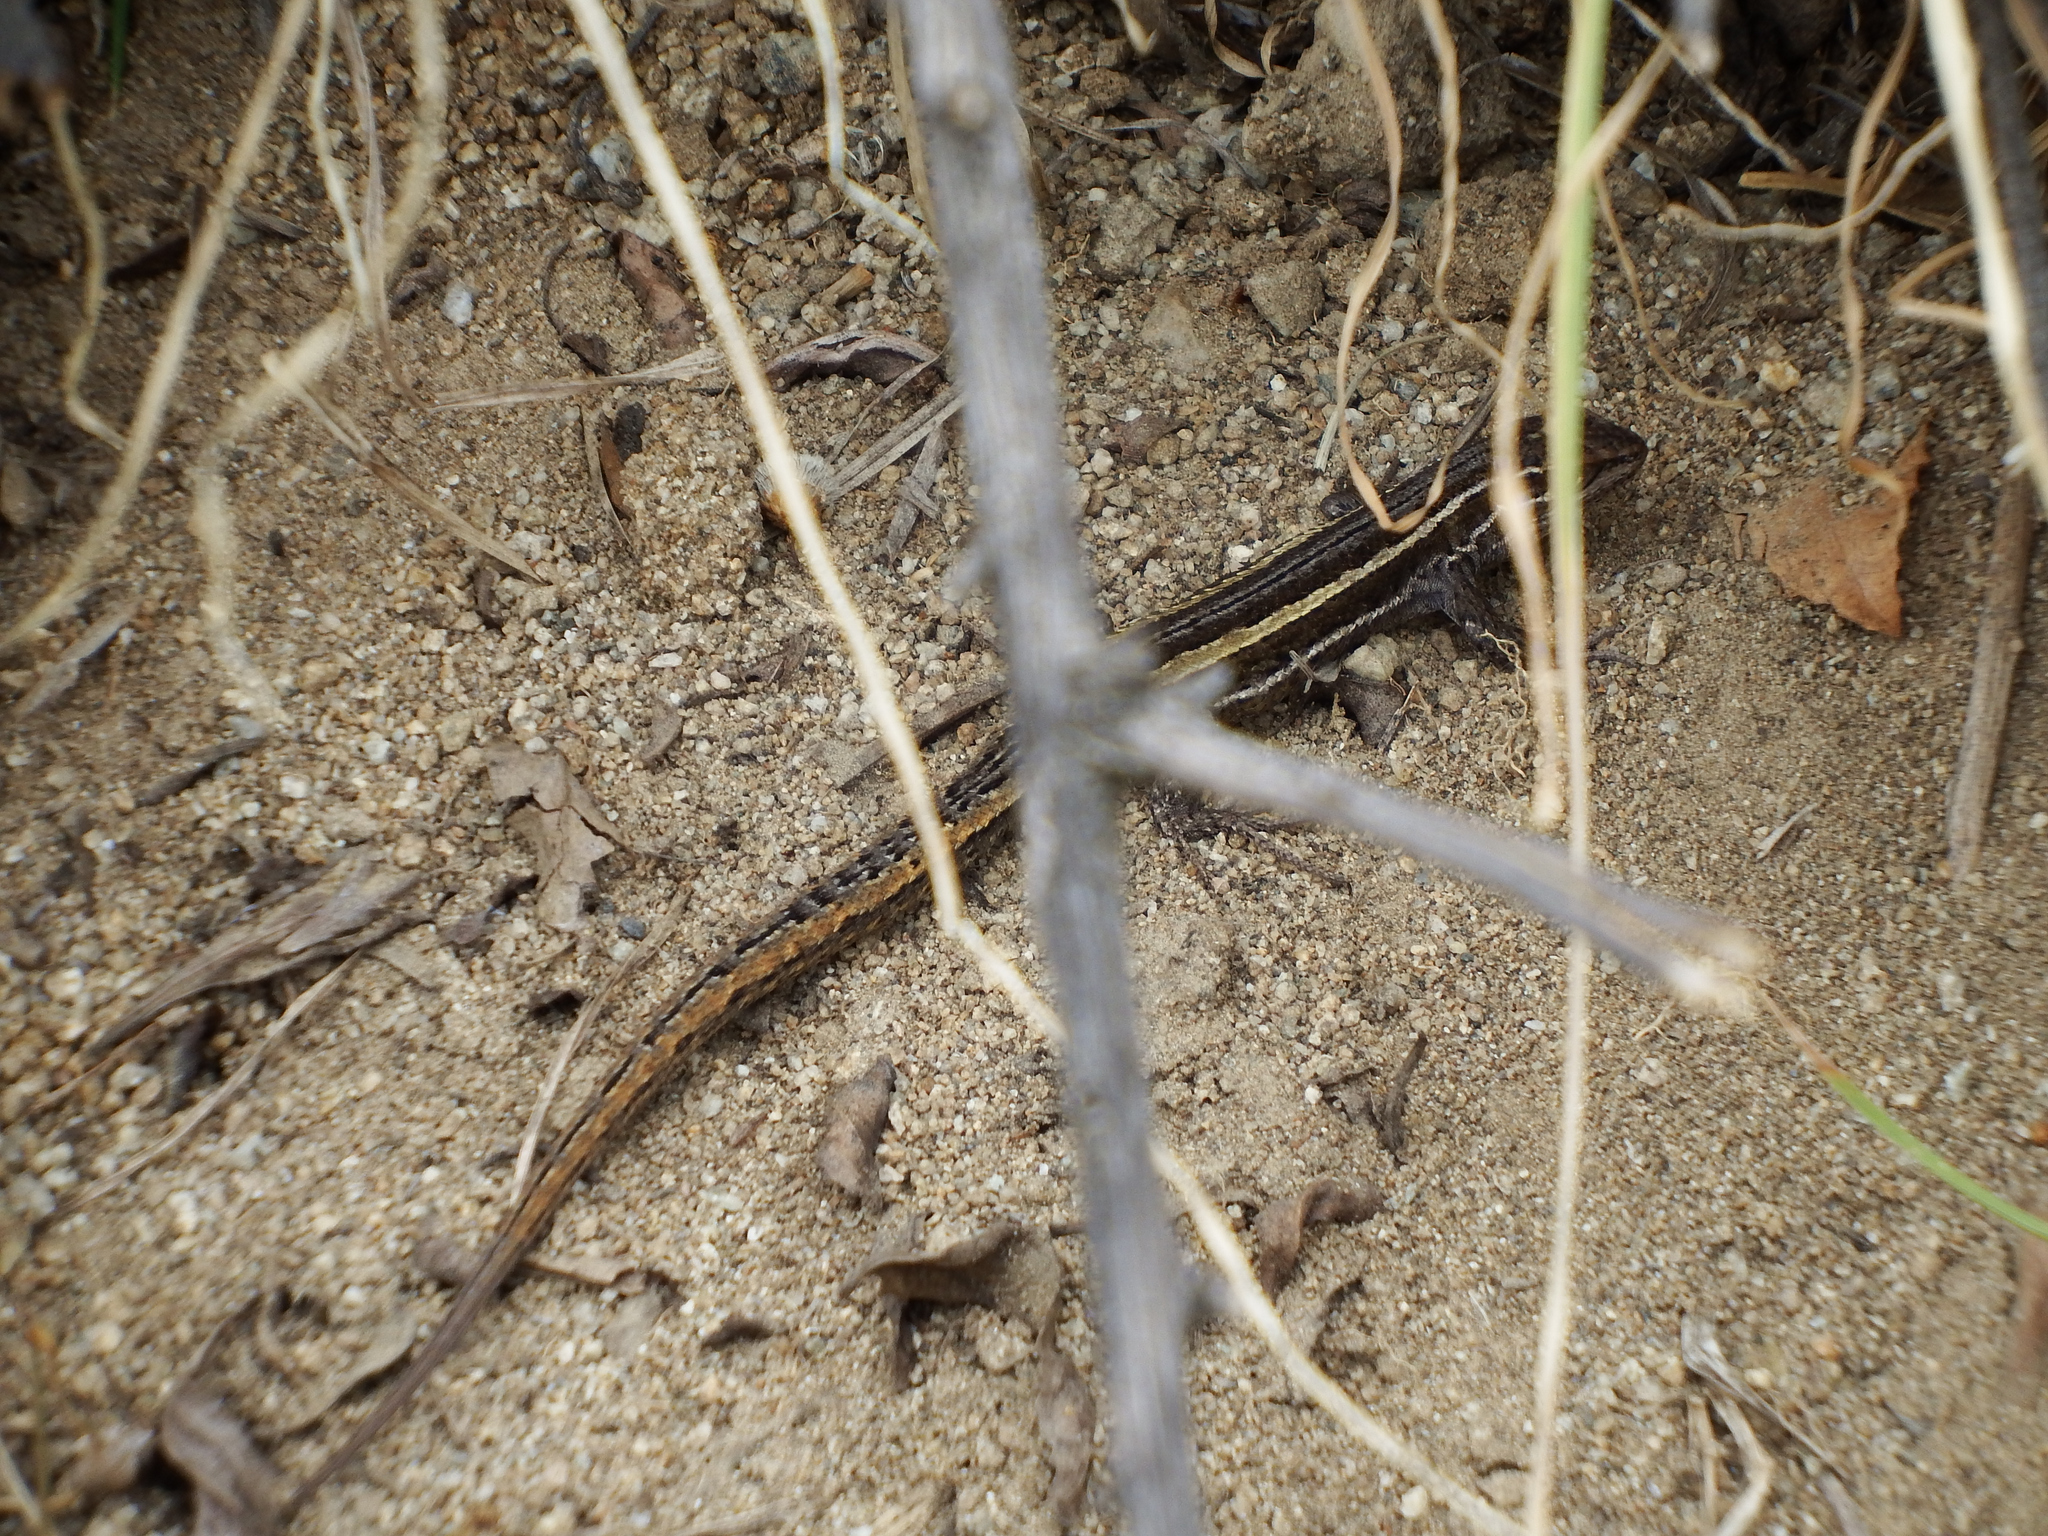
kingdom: Animalia
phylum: Chordata
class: Squamata
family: Liolaemidae
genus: Liolaemus
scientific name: Liolaemus alticolor
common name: Brilliant tree iguana
